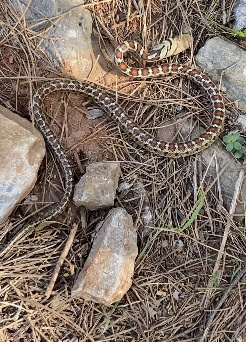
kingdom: Animalia
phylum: Chordata
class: Squamata
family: Colubridae
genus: Zamenis
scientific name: Zamenis situla
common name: European ratsnake
